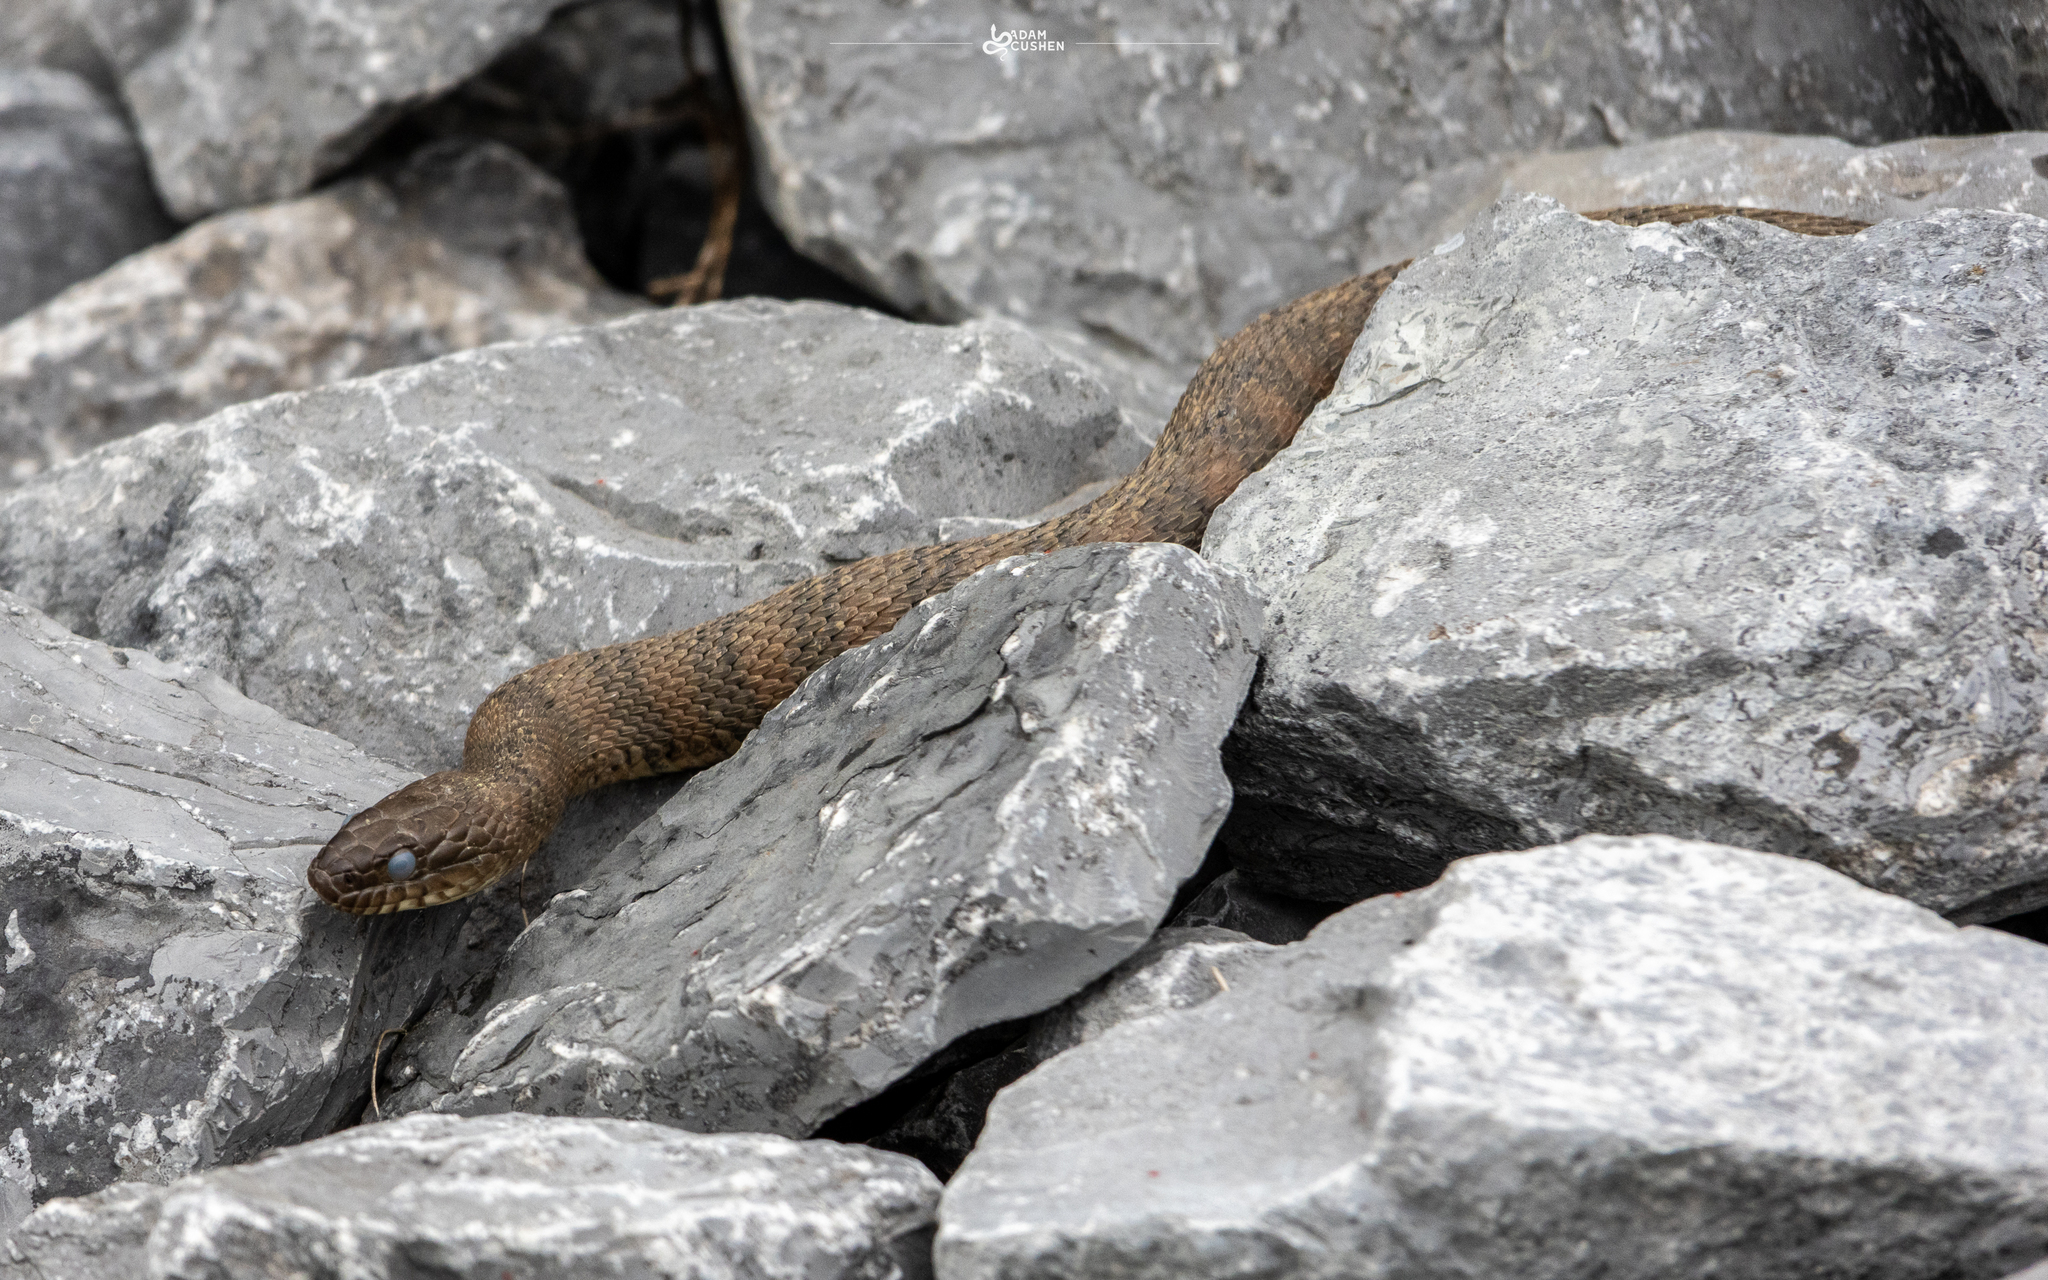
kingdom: Animalia
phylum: Chordata
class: Squamata
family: Colubridae
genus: Nerodia
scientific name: Nerodia sipedon
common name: Northern water snake
